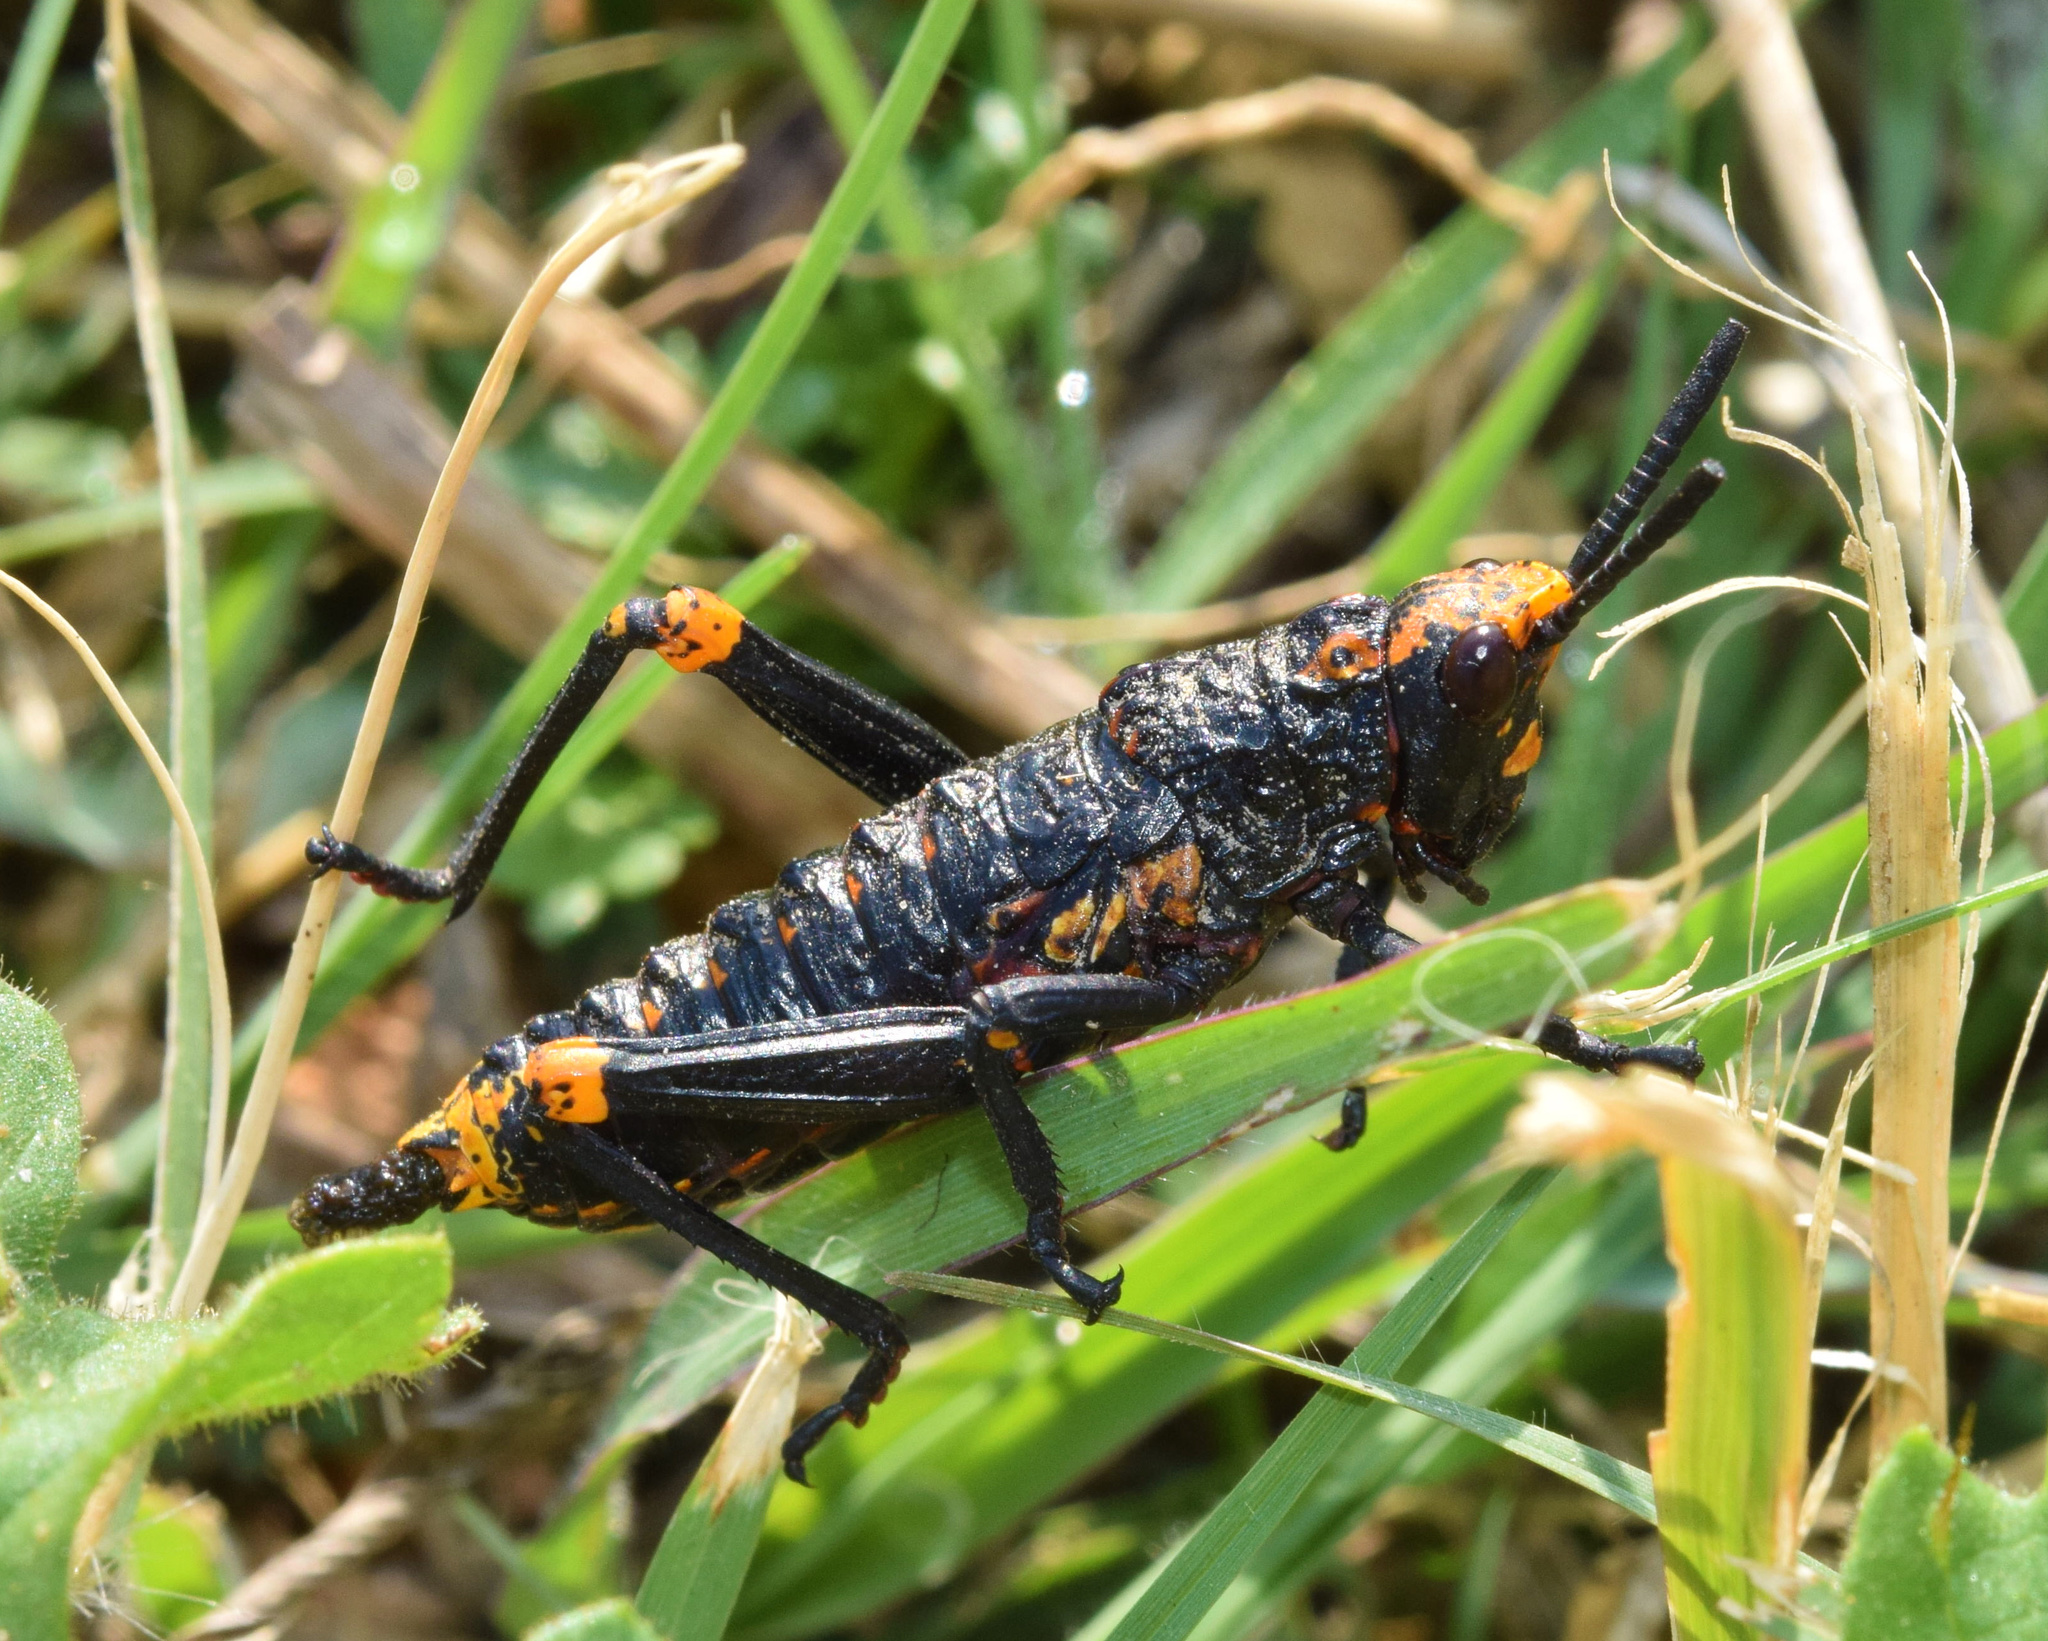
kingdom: Animalia
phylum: Arthropoda
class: Insecta
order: Orthoptera
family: Pyrgomorphidae
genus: Dictyophorus
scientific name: Dictyophorus spumans
